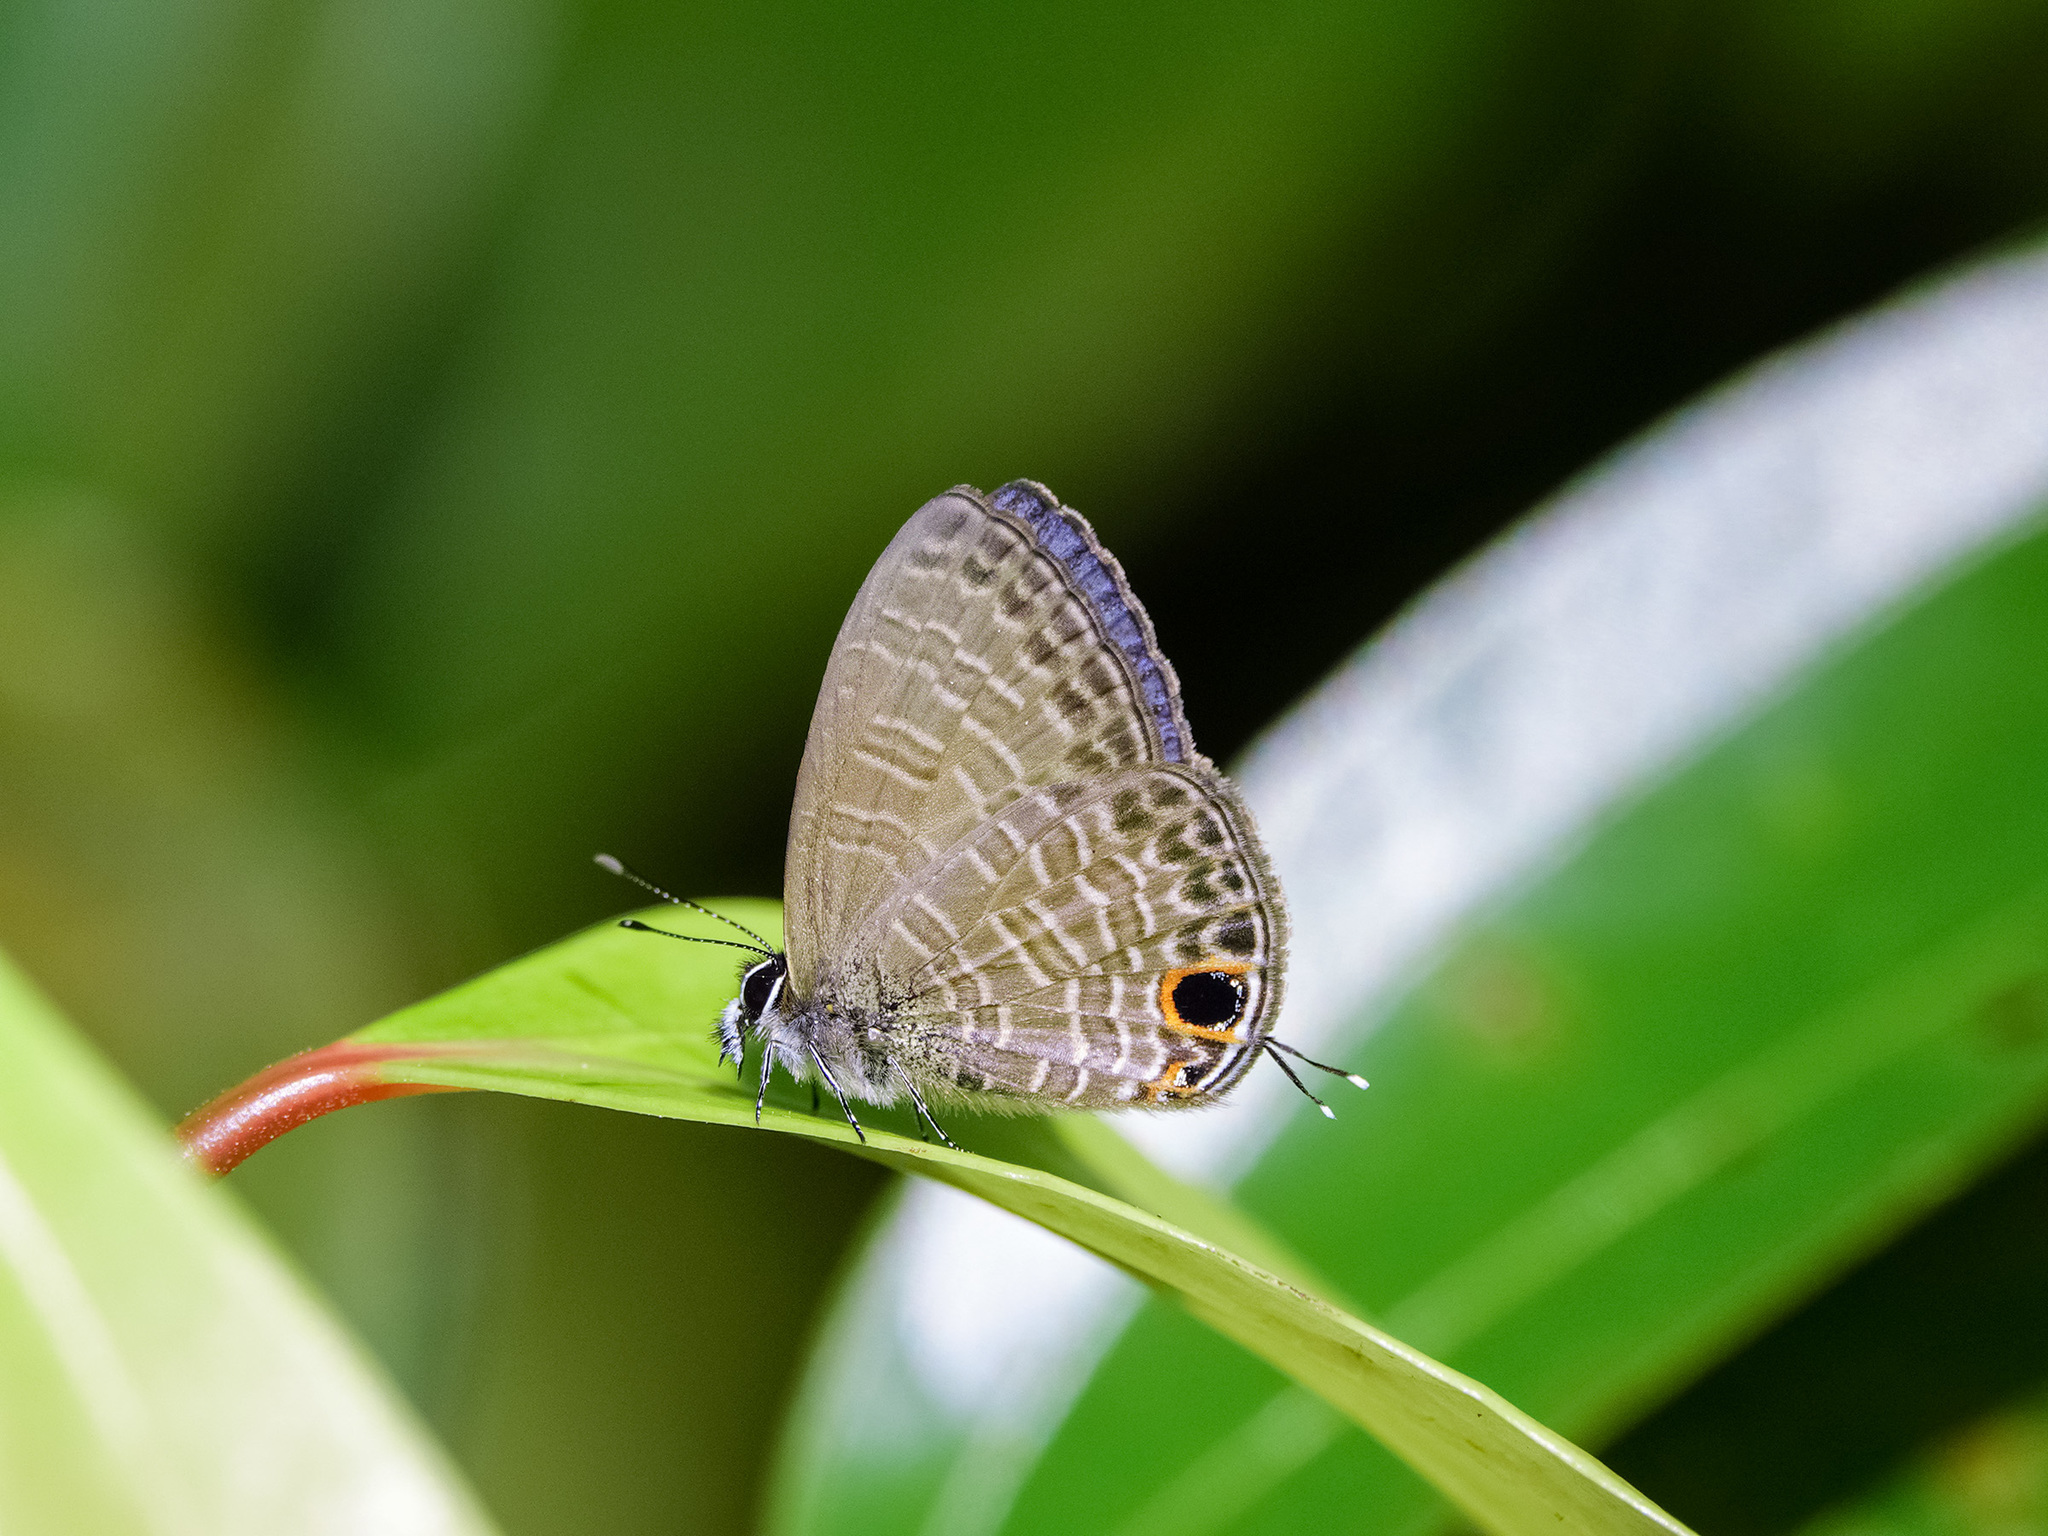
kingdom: Animalia
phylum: Arthropoda
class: Insecta
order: Lepidoptera
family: Lycaenidae
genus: Nacaduba
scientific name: Nacaduba berenice
